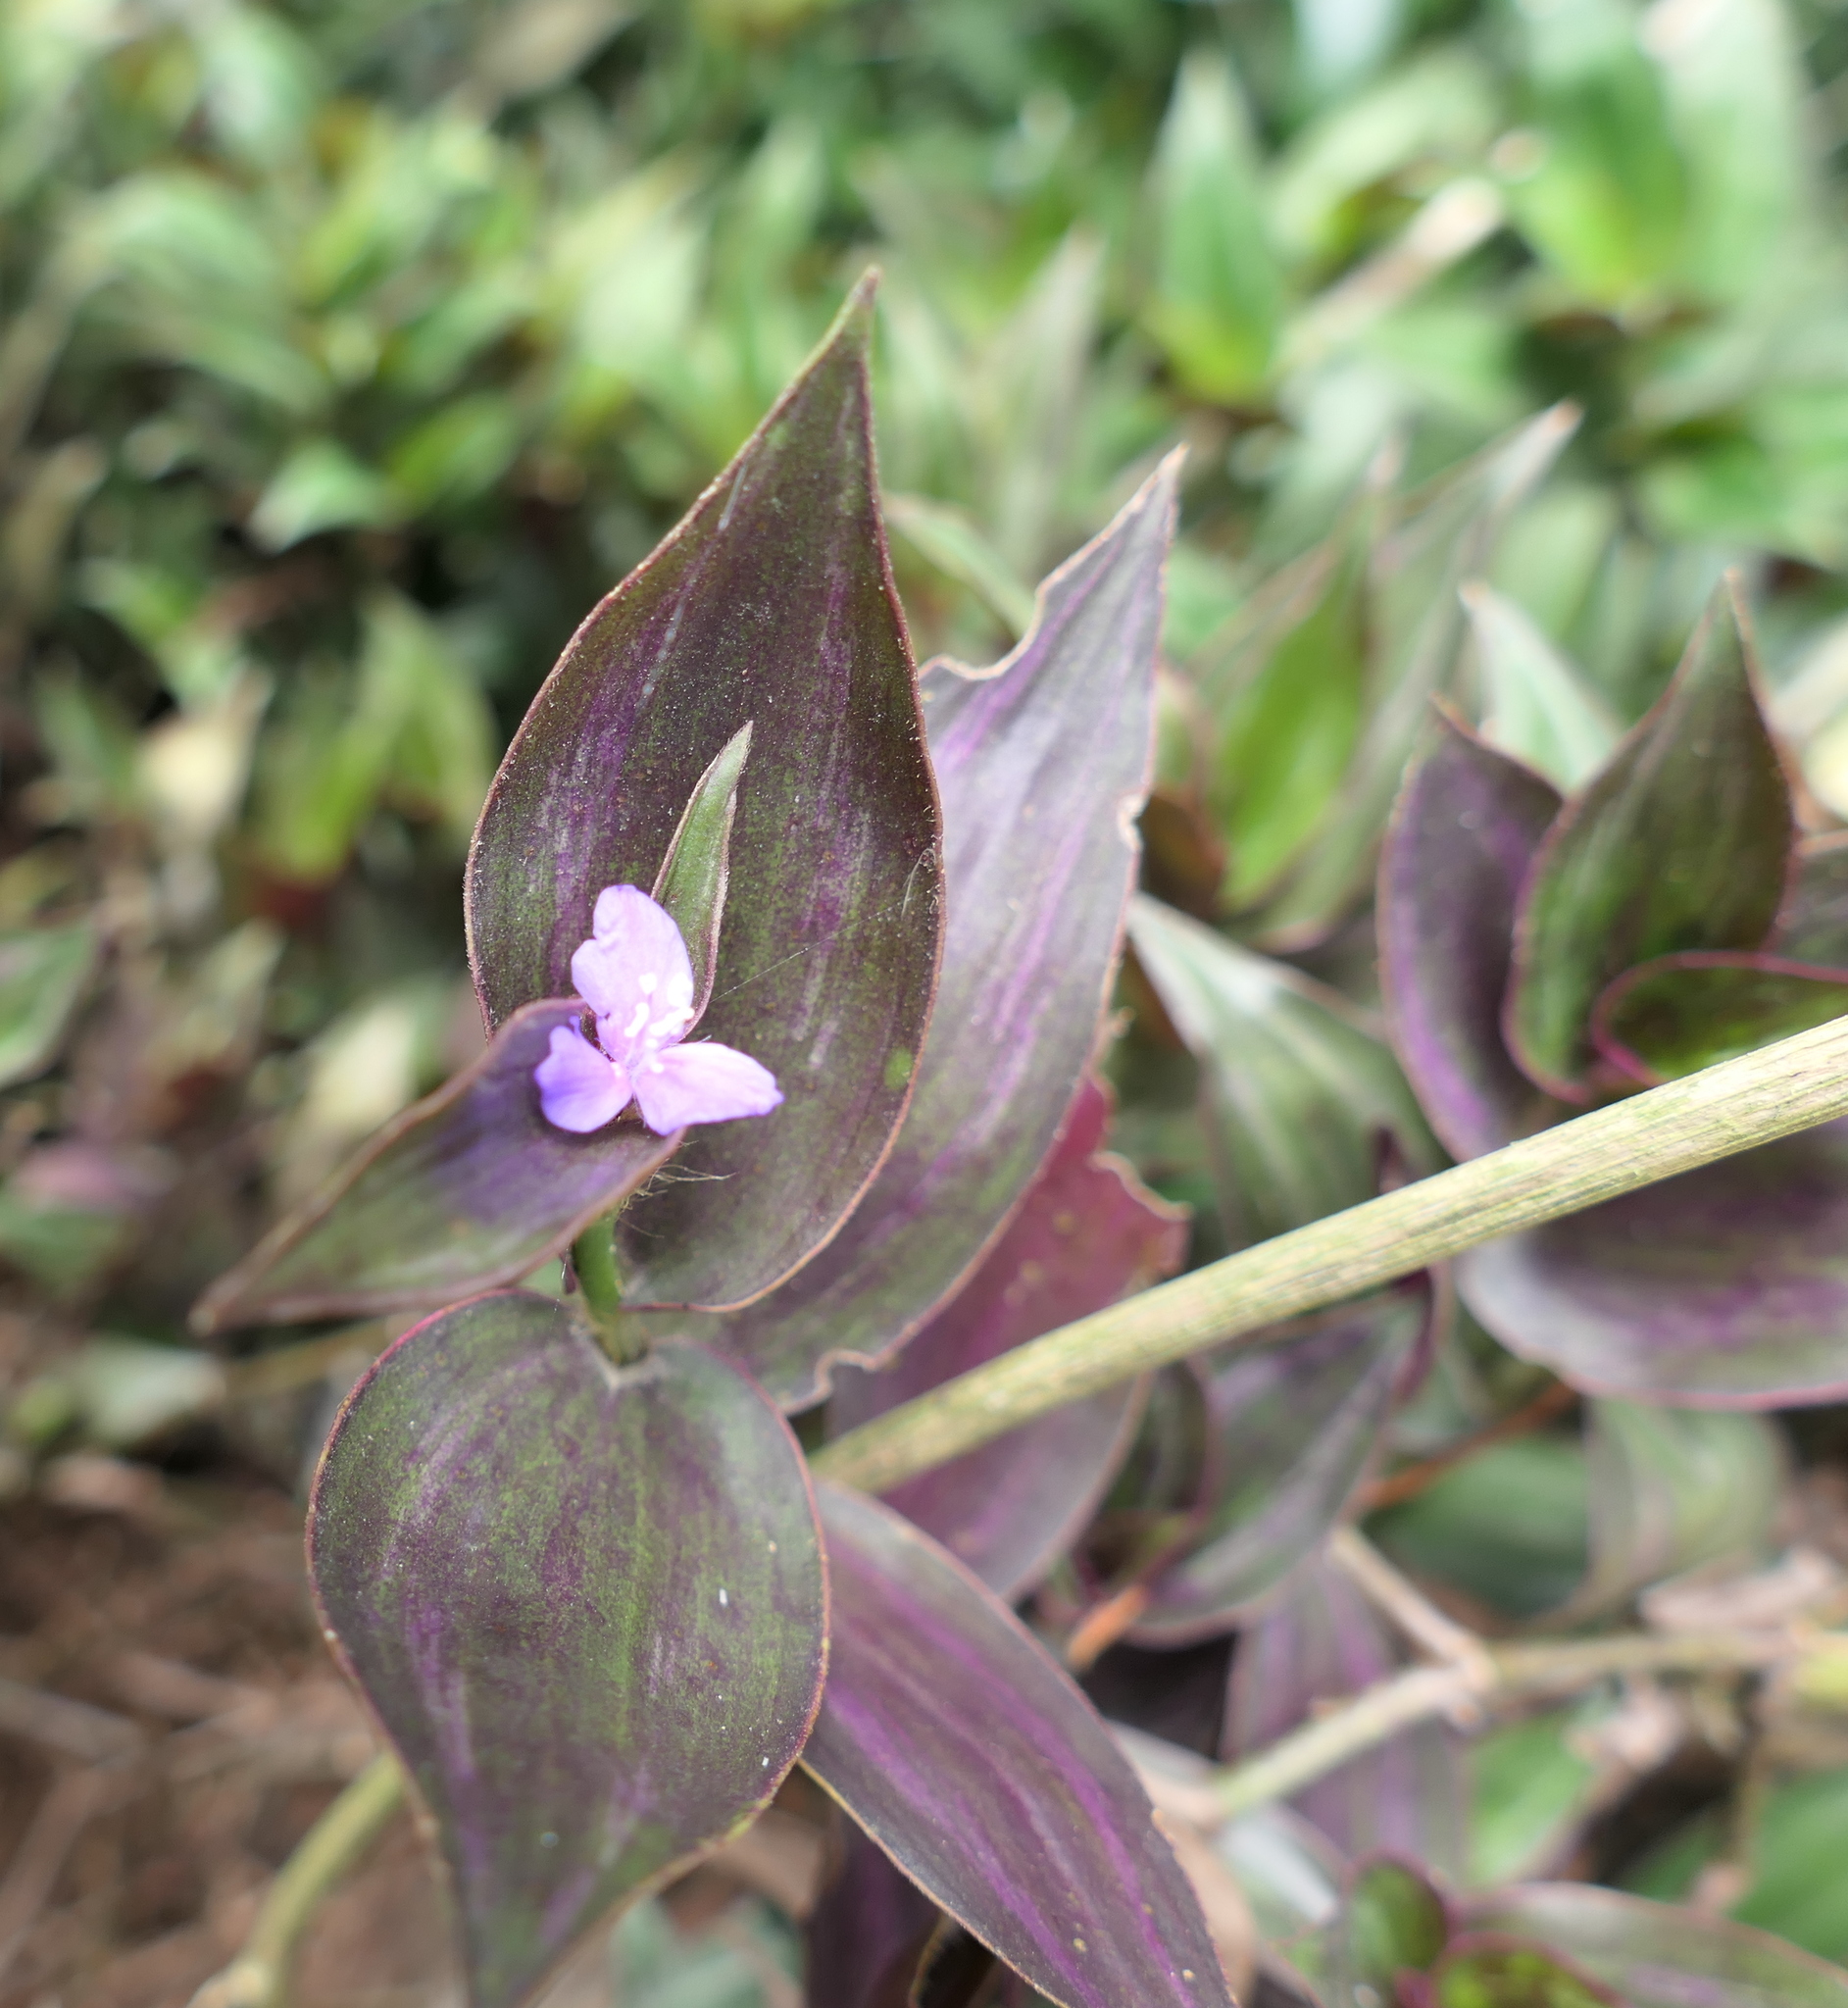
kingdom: Plantae
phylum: Tracheophyta
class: Liliopsida
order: Commelinales
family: Commelinaceae
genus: Tradescantia
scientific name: Tradescantia zebrina
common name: Inchplant
